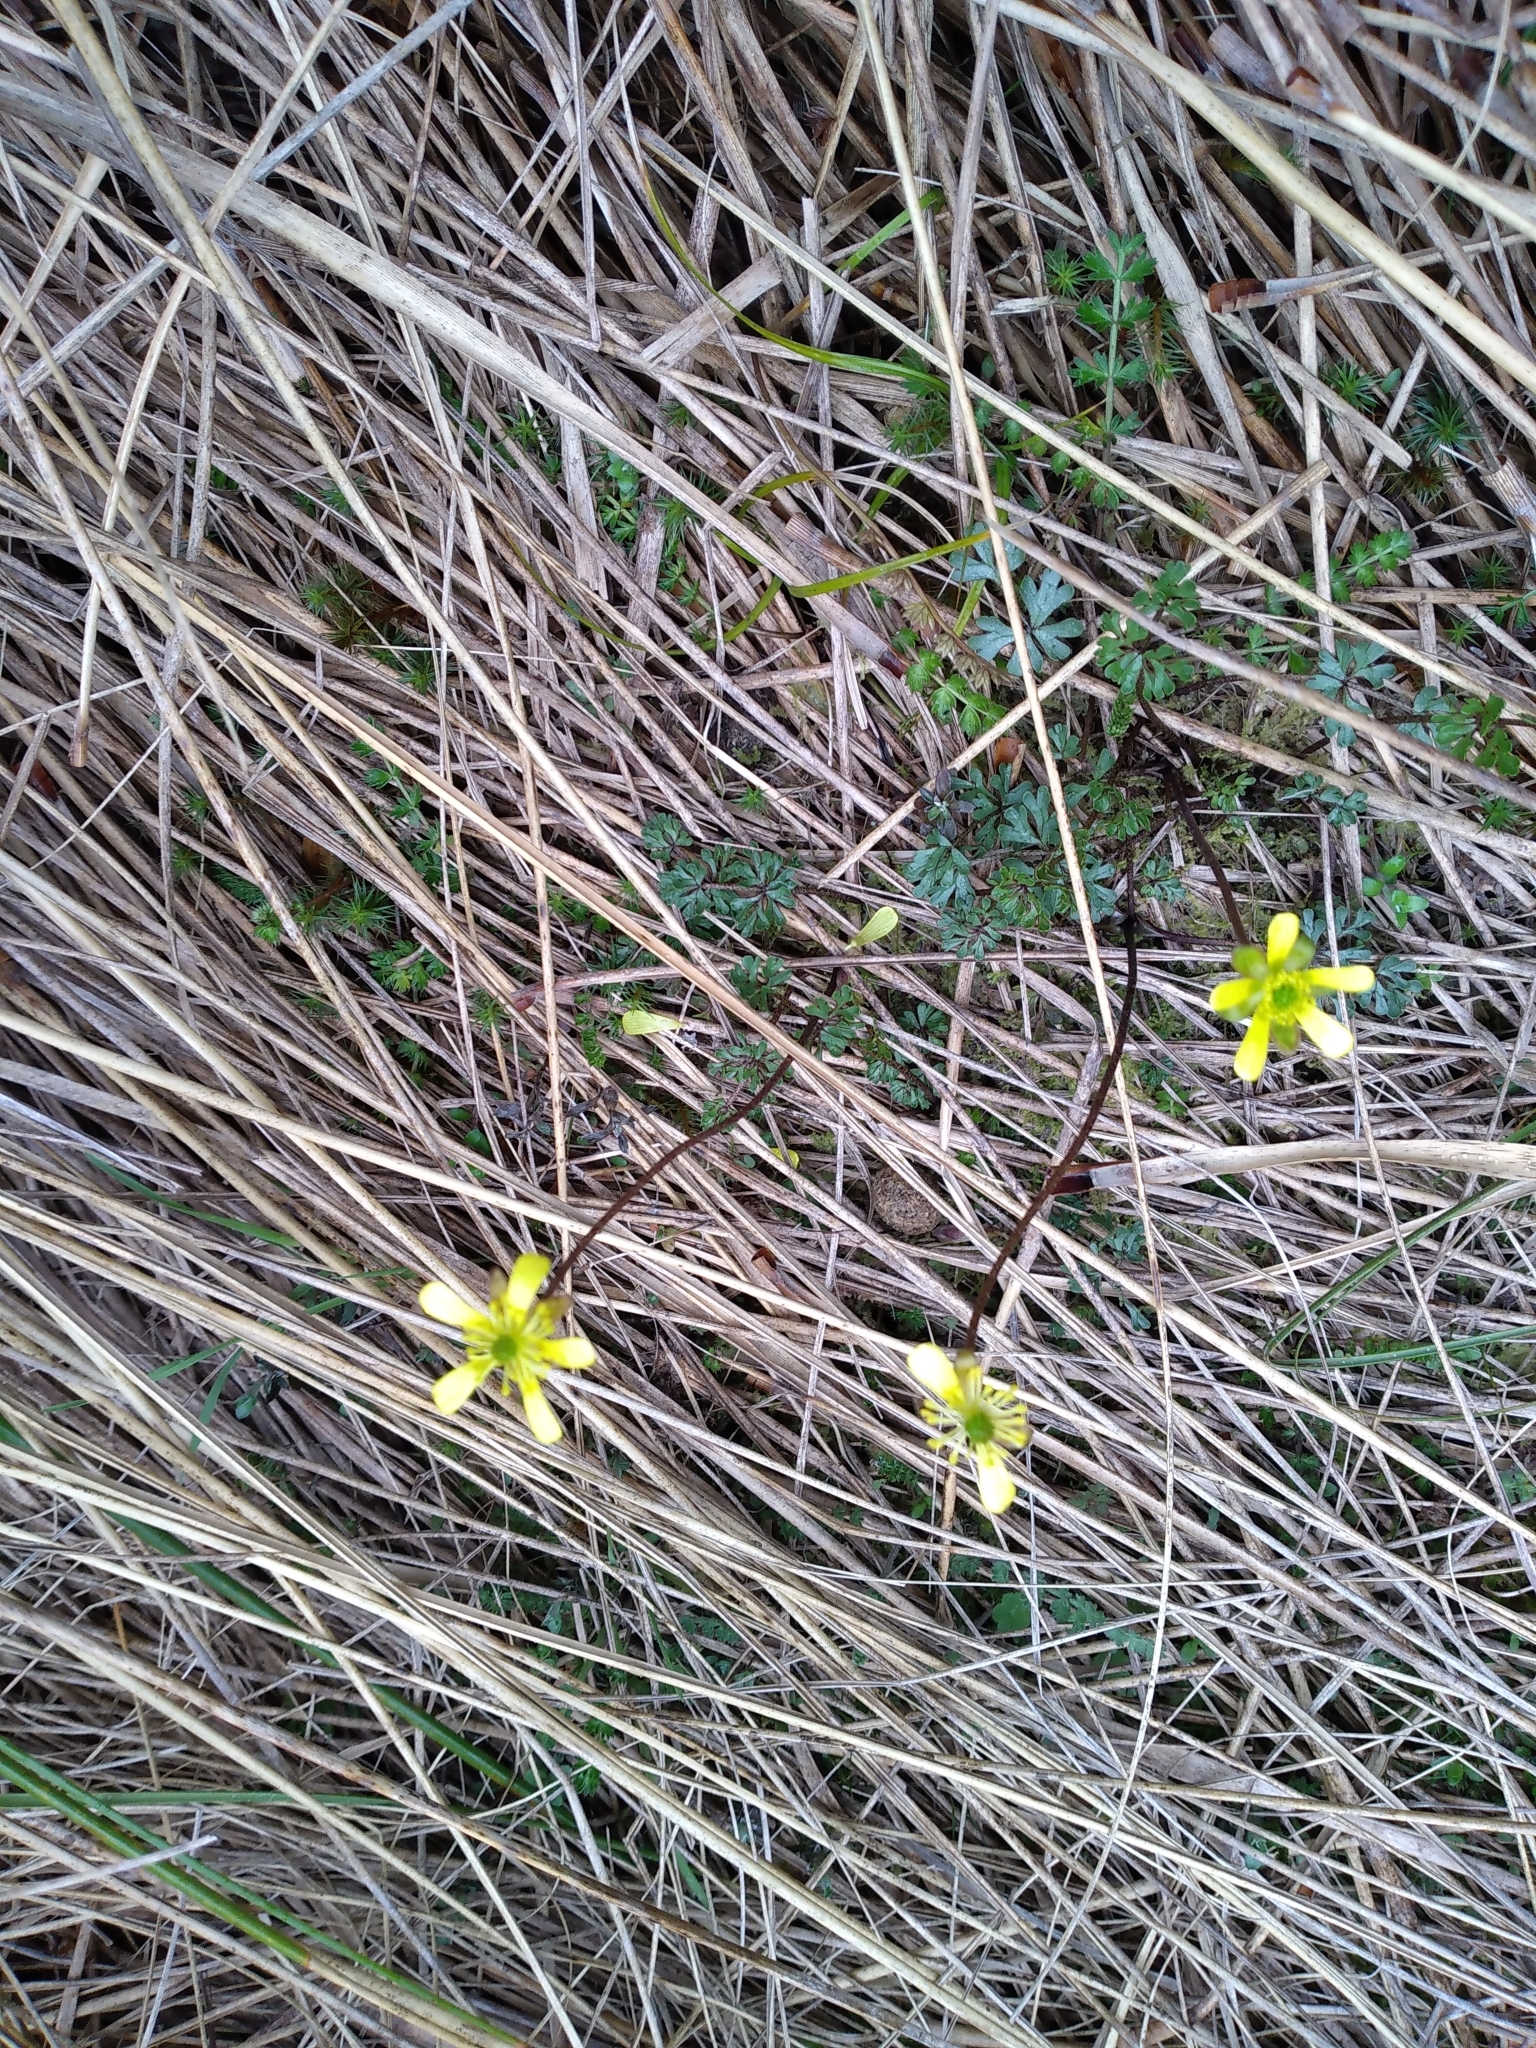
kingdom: Plantae
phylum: Tracheophyta
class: Magnoliopsida
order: Ranunculales
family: Ranunculaceae
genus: Ranunculus
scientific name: Ranunculus enysii
